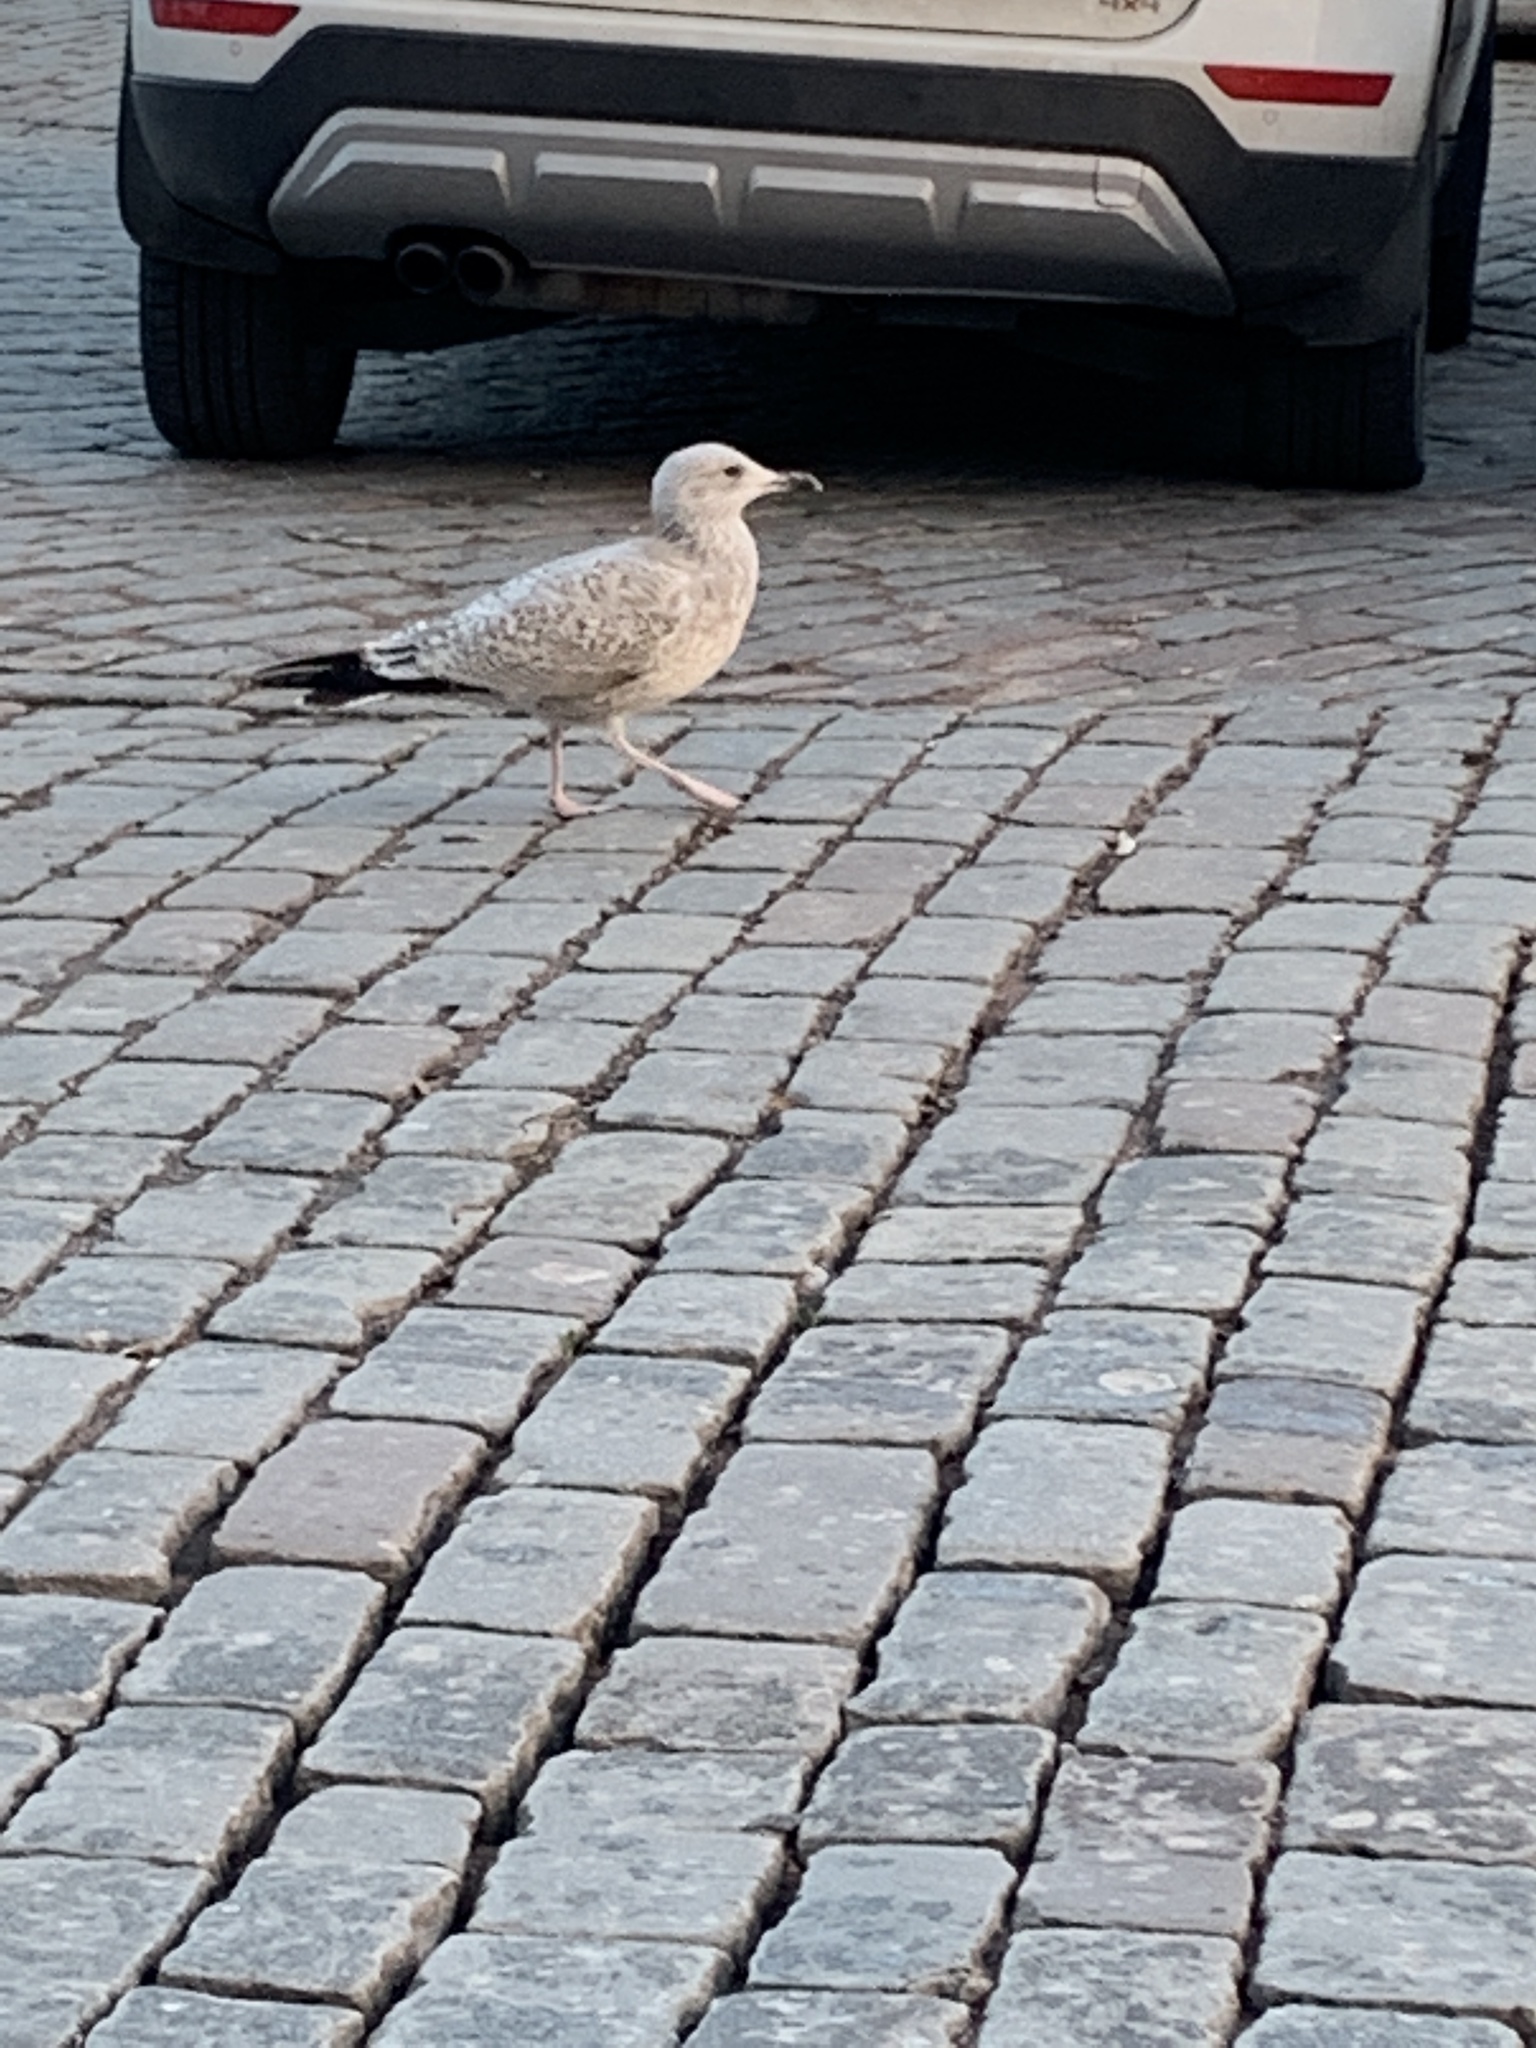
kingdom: Animalia
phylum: Chordata
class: Aves
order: Charadriiformes
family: Laridae
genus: Larus
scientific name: Larus argentatus
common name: Herring gull
